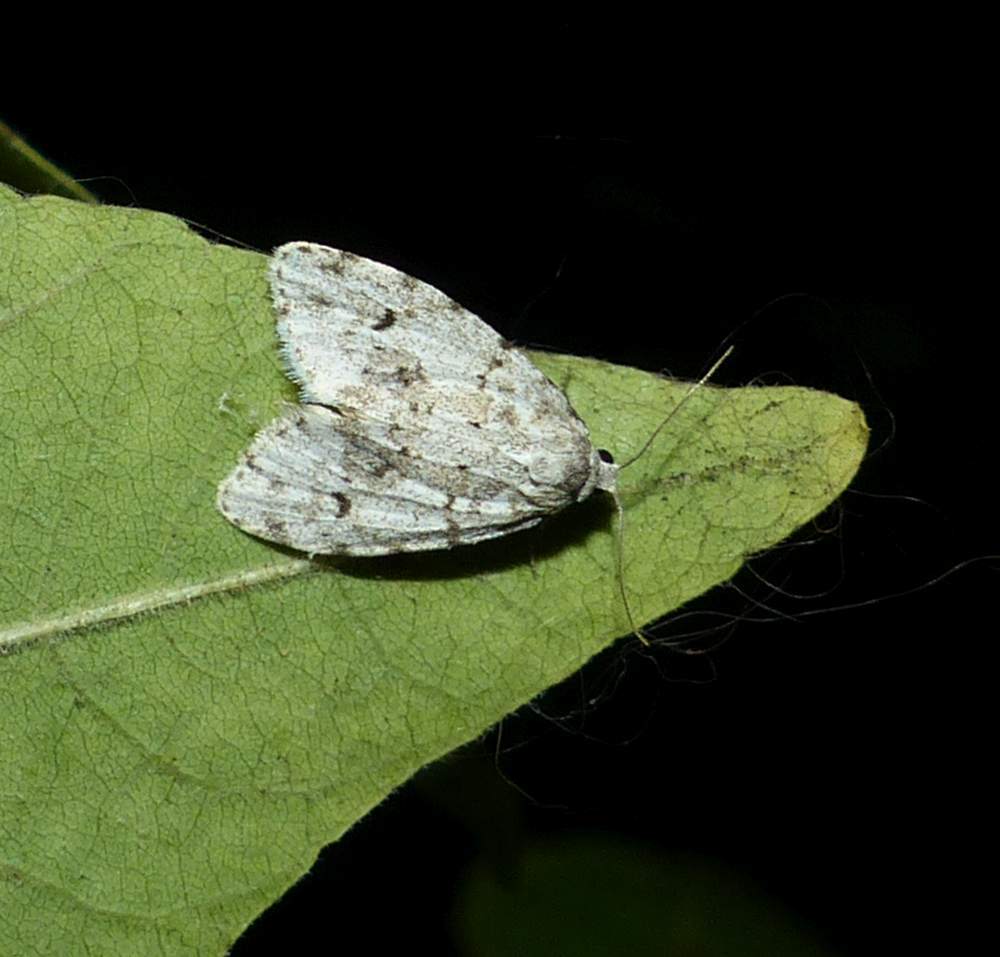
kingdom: Animalia
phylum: Arthropoda
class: Insecta
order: Lepidoptera
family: Erebidae
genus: Clemensia
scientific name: Clemensia albata
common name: Little white lichen moth
